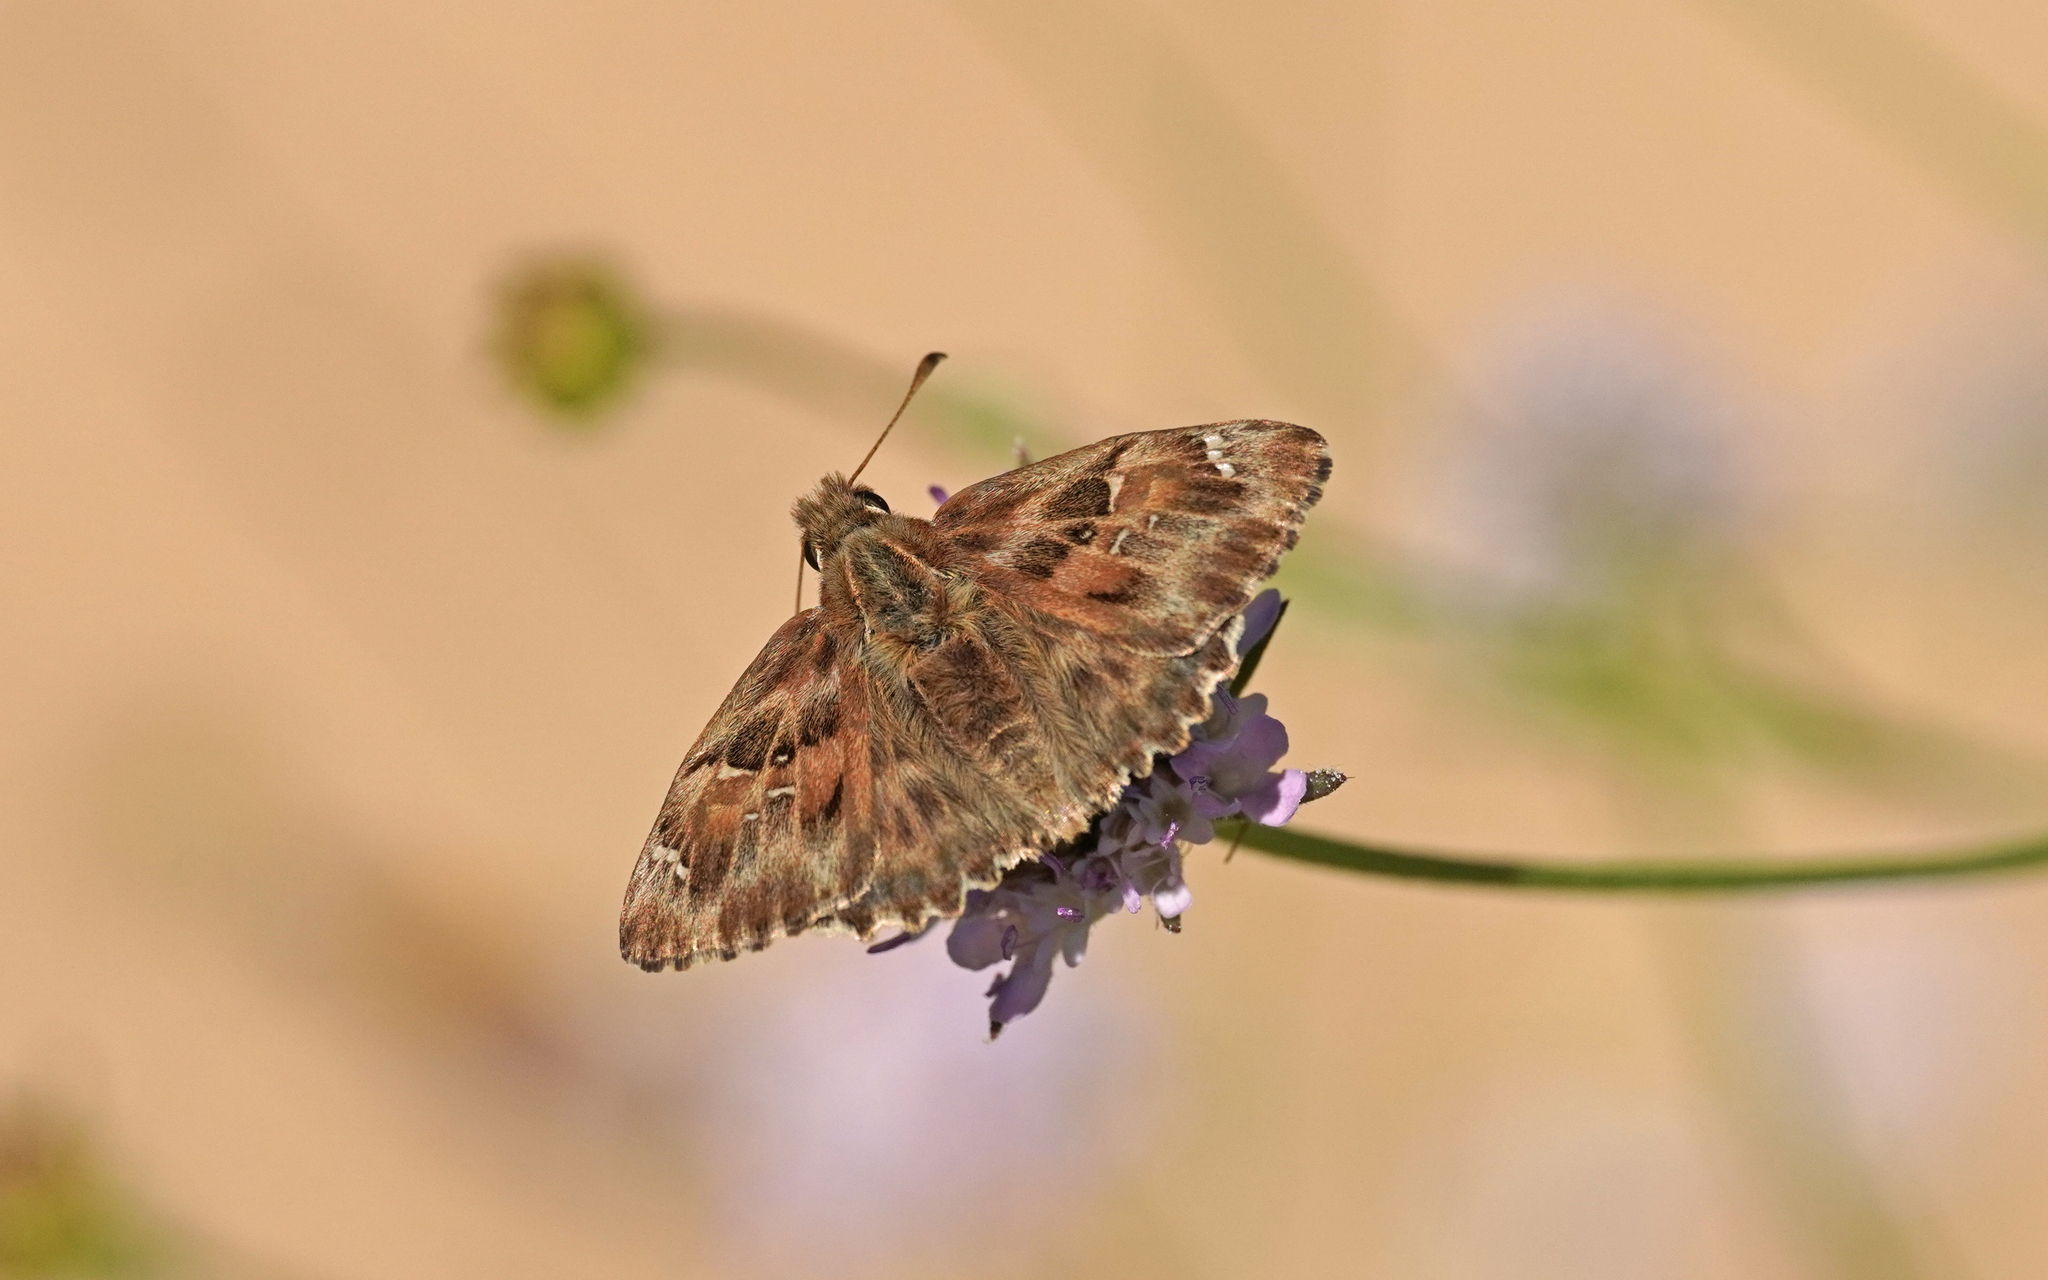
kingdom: Animalia
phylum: Arthropoda
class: Insecta
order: Lepidoptera
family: Hesperiidae
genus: Carcharodus
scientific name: Carcharodus alceae
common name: Mallow skipper
